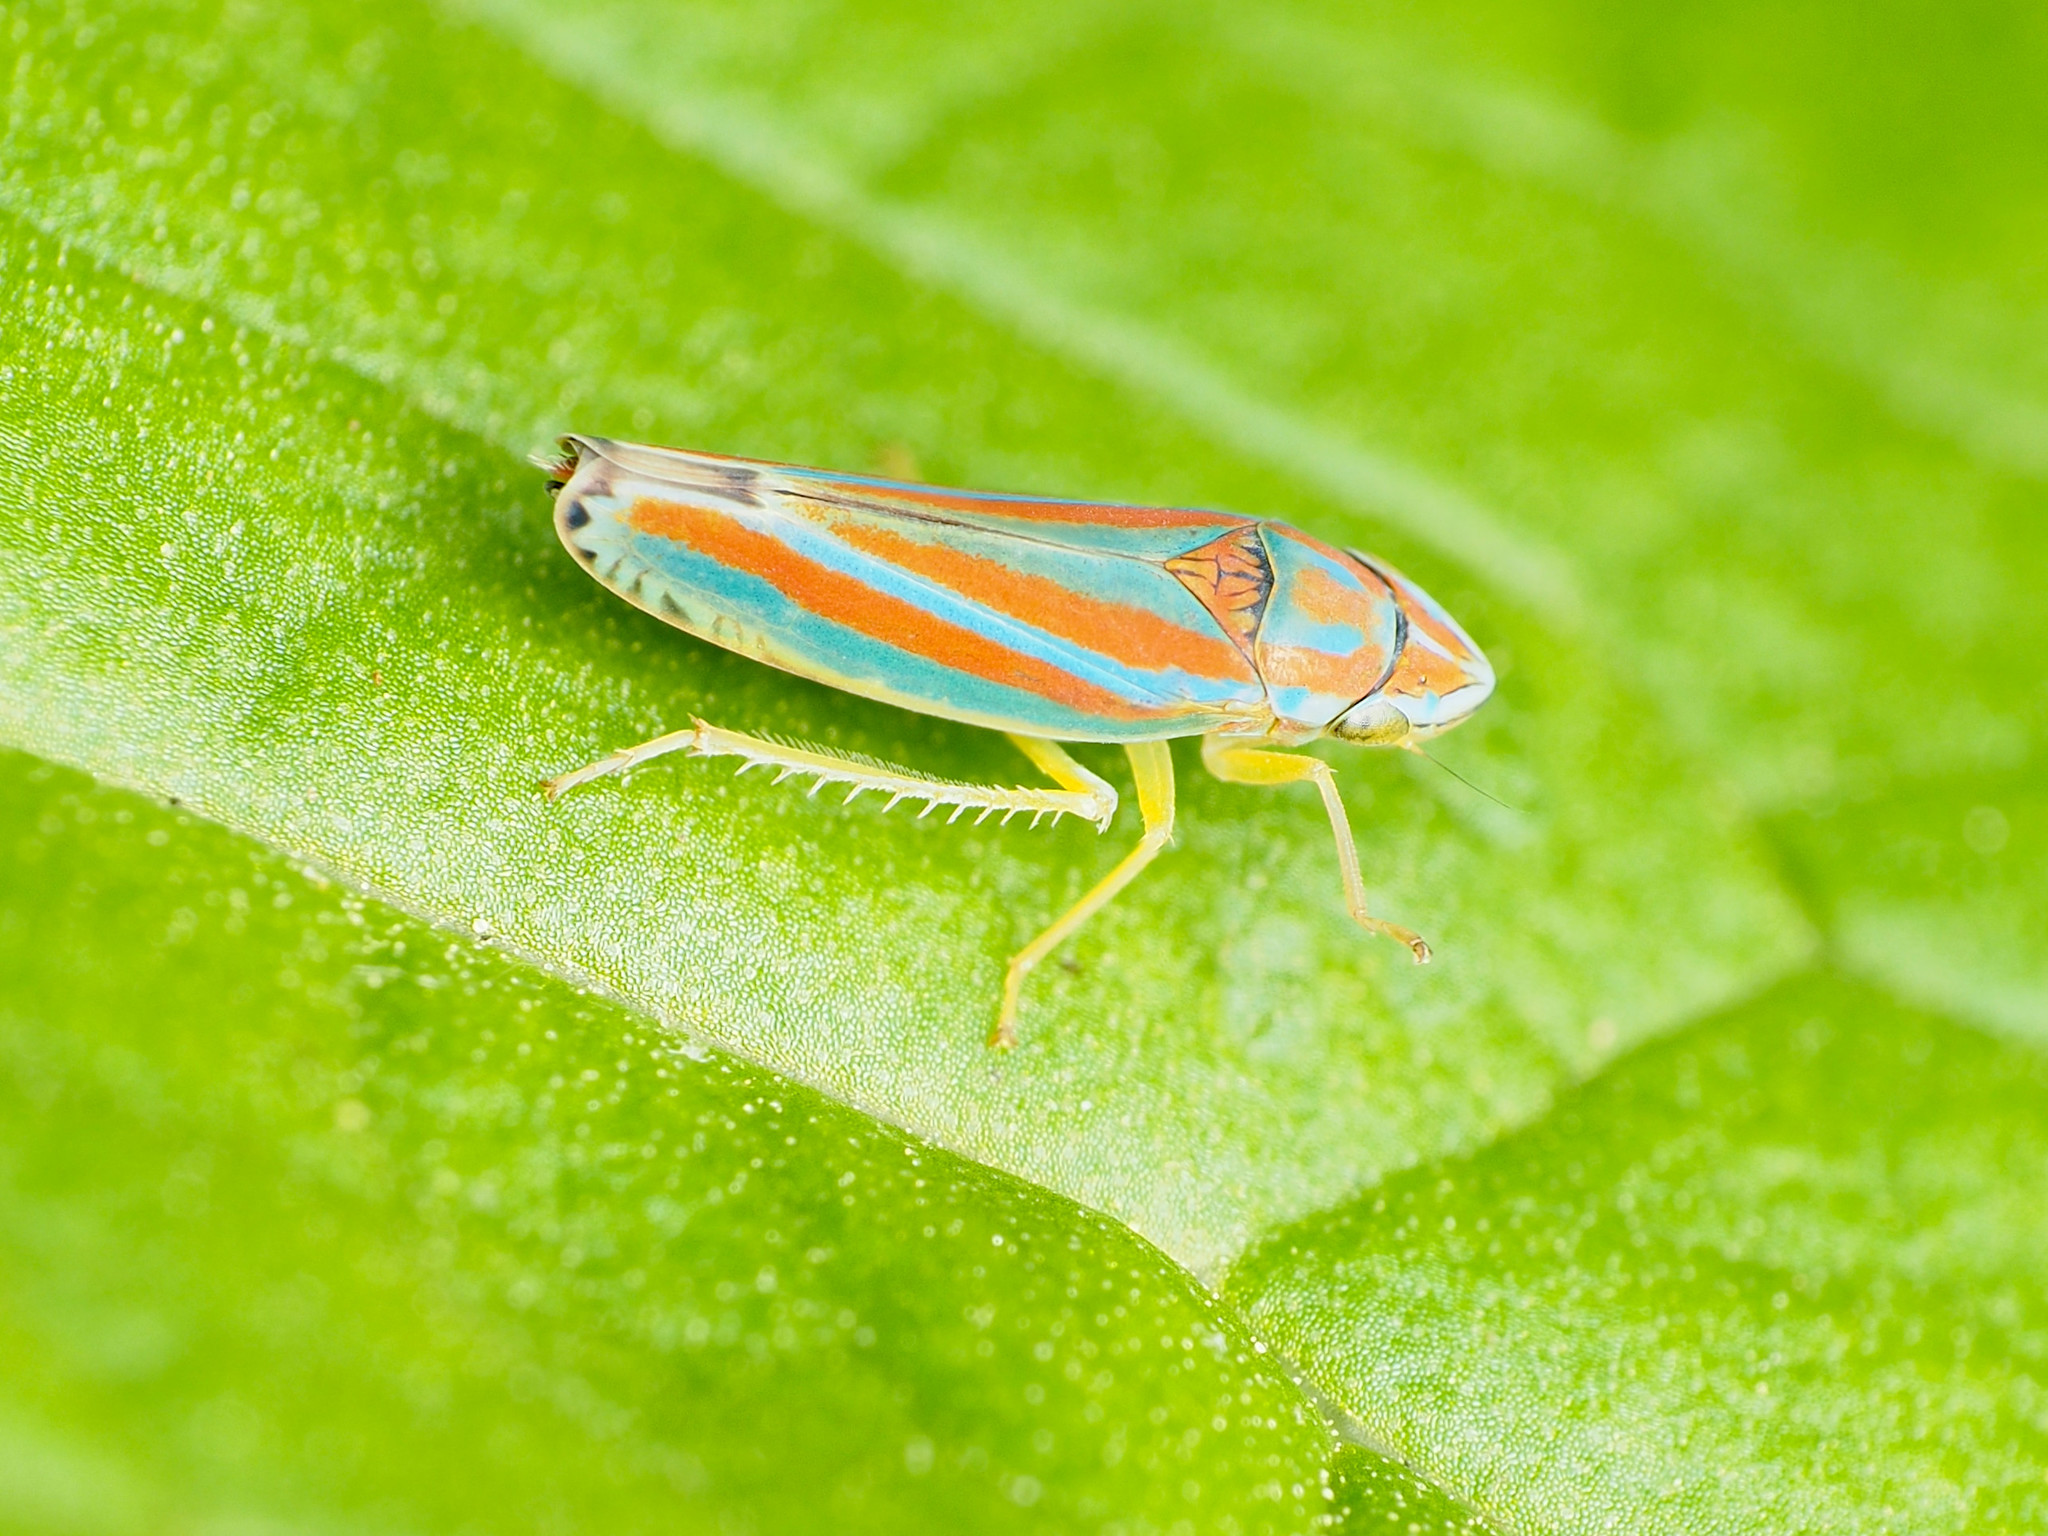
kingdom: Animalia
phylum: Arthropoda
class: Insecta
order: Hemiptera
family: Cicadellidae
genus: Graphocephala
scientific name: Graphocephala versuta
